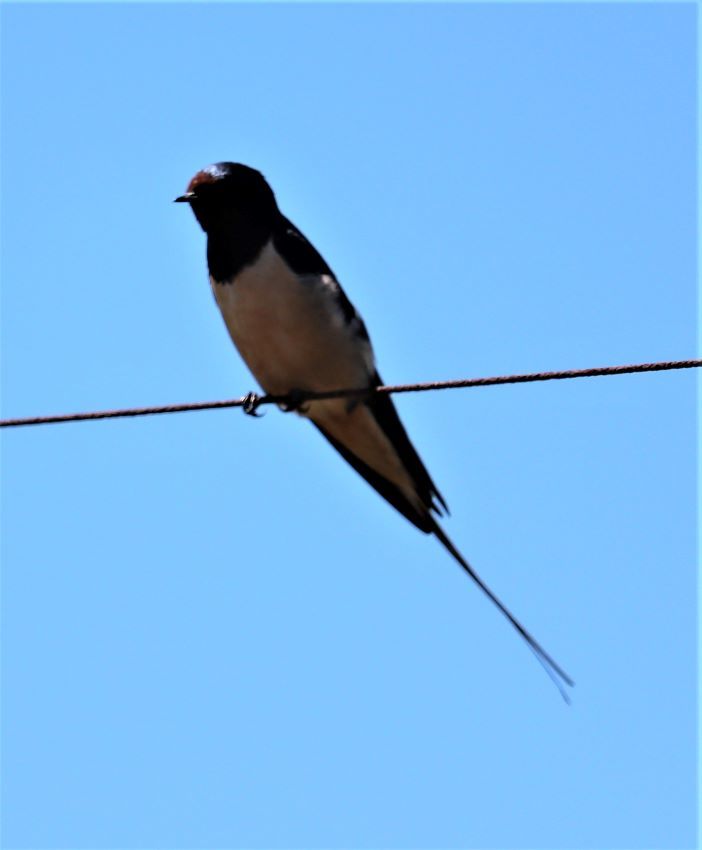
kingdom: Animalia
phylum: Chordata
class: Aves
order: Passeriformes
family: Hirundinidae
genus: Hirundo
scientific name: Hirundo rustica
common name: Barn swallow
